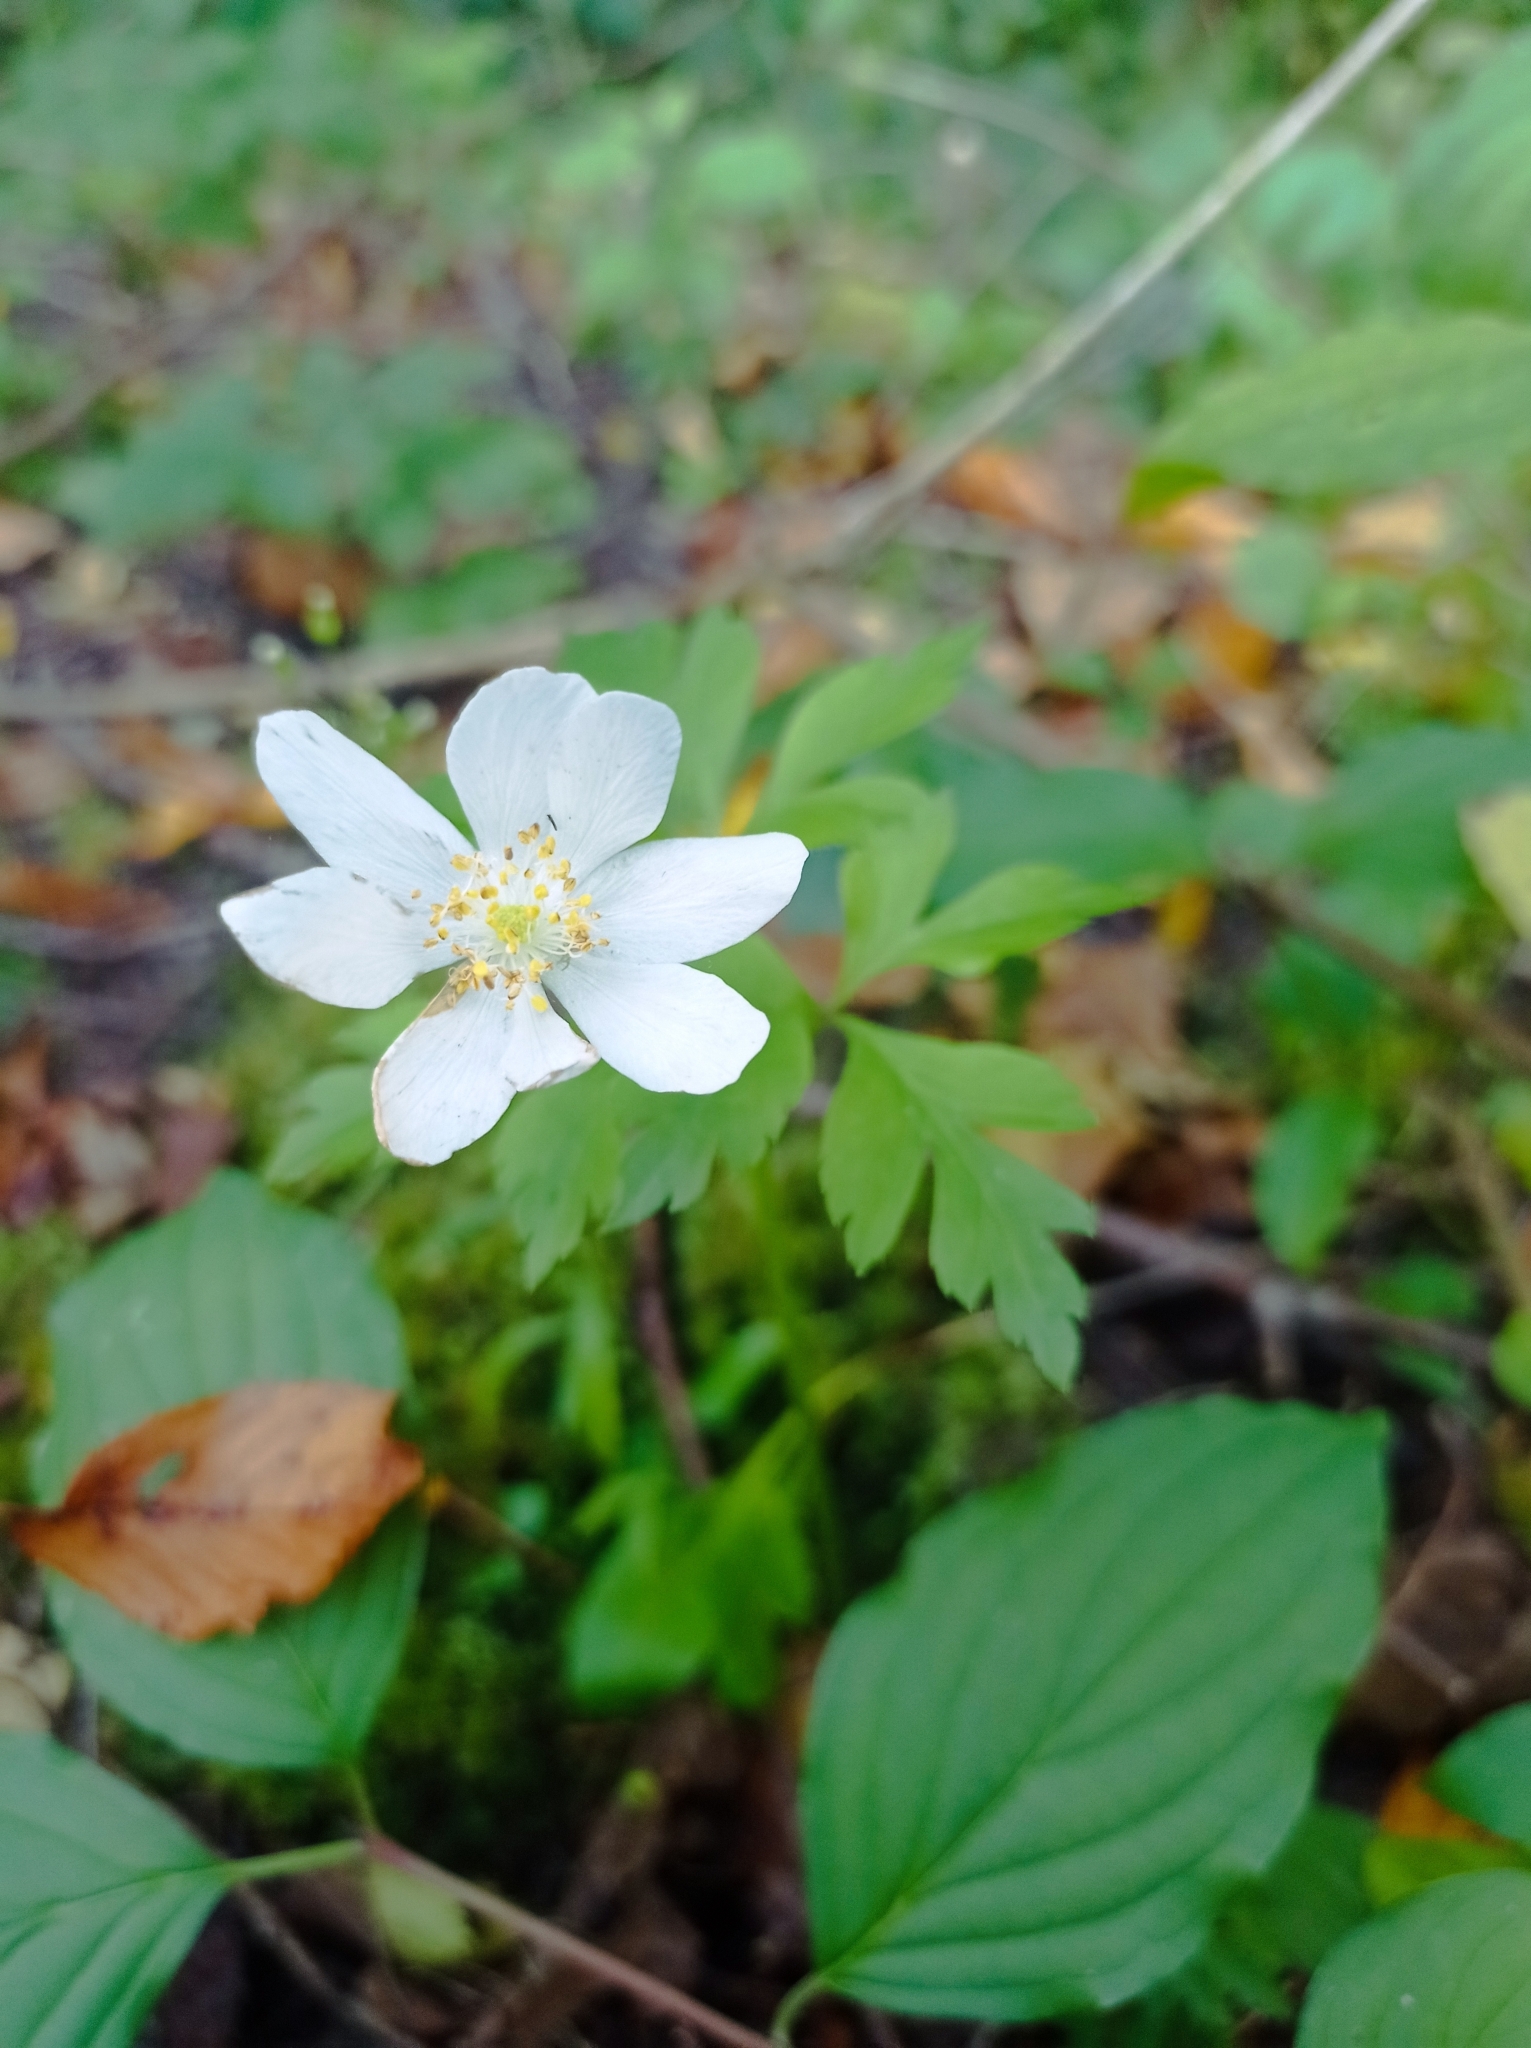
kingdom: Plantae
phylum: Tracheophyta
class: Magnoliopsida
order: Ranunculales
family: Ranunculaceae
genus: Anemone
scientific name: Anemone nemorosa
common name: Wood anemone
